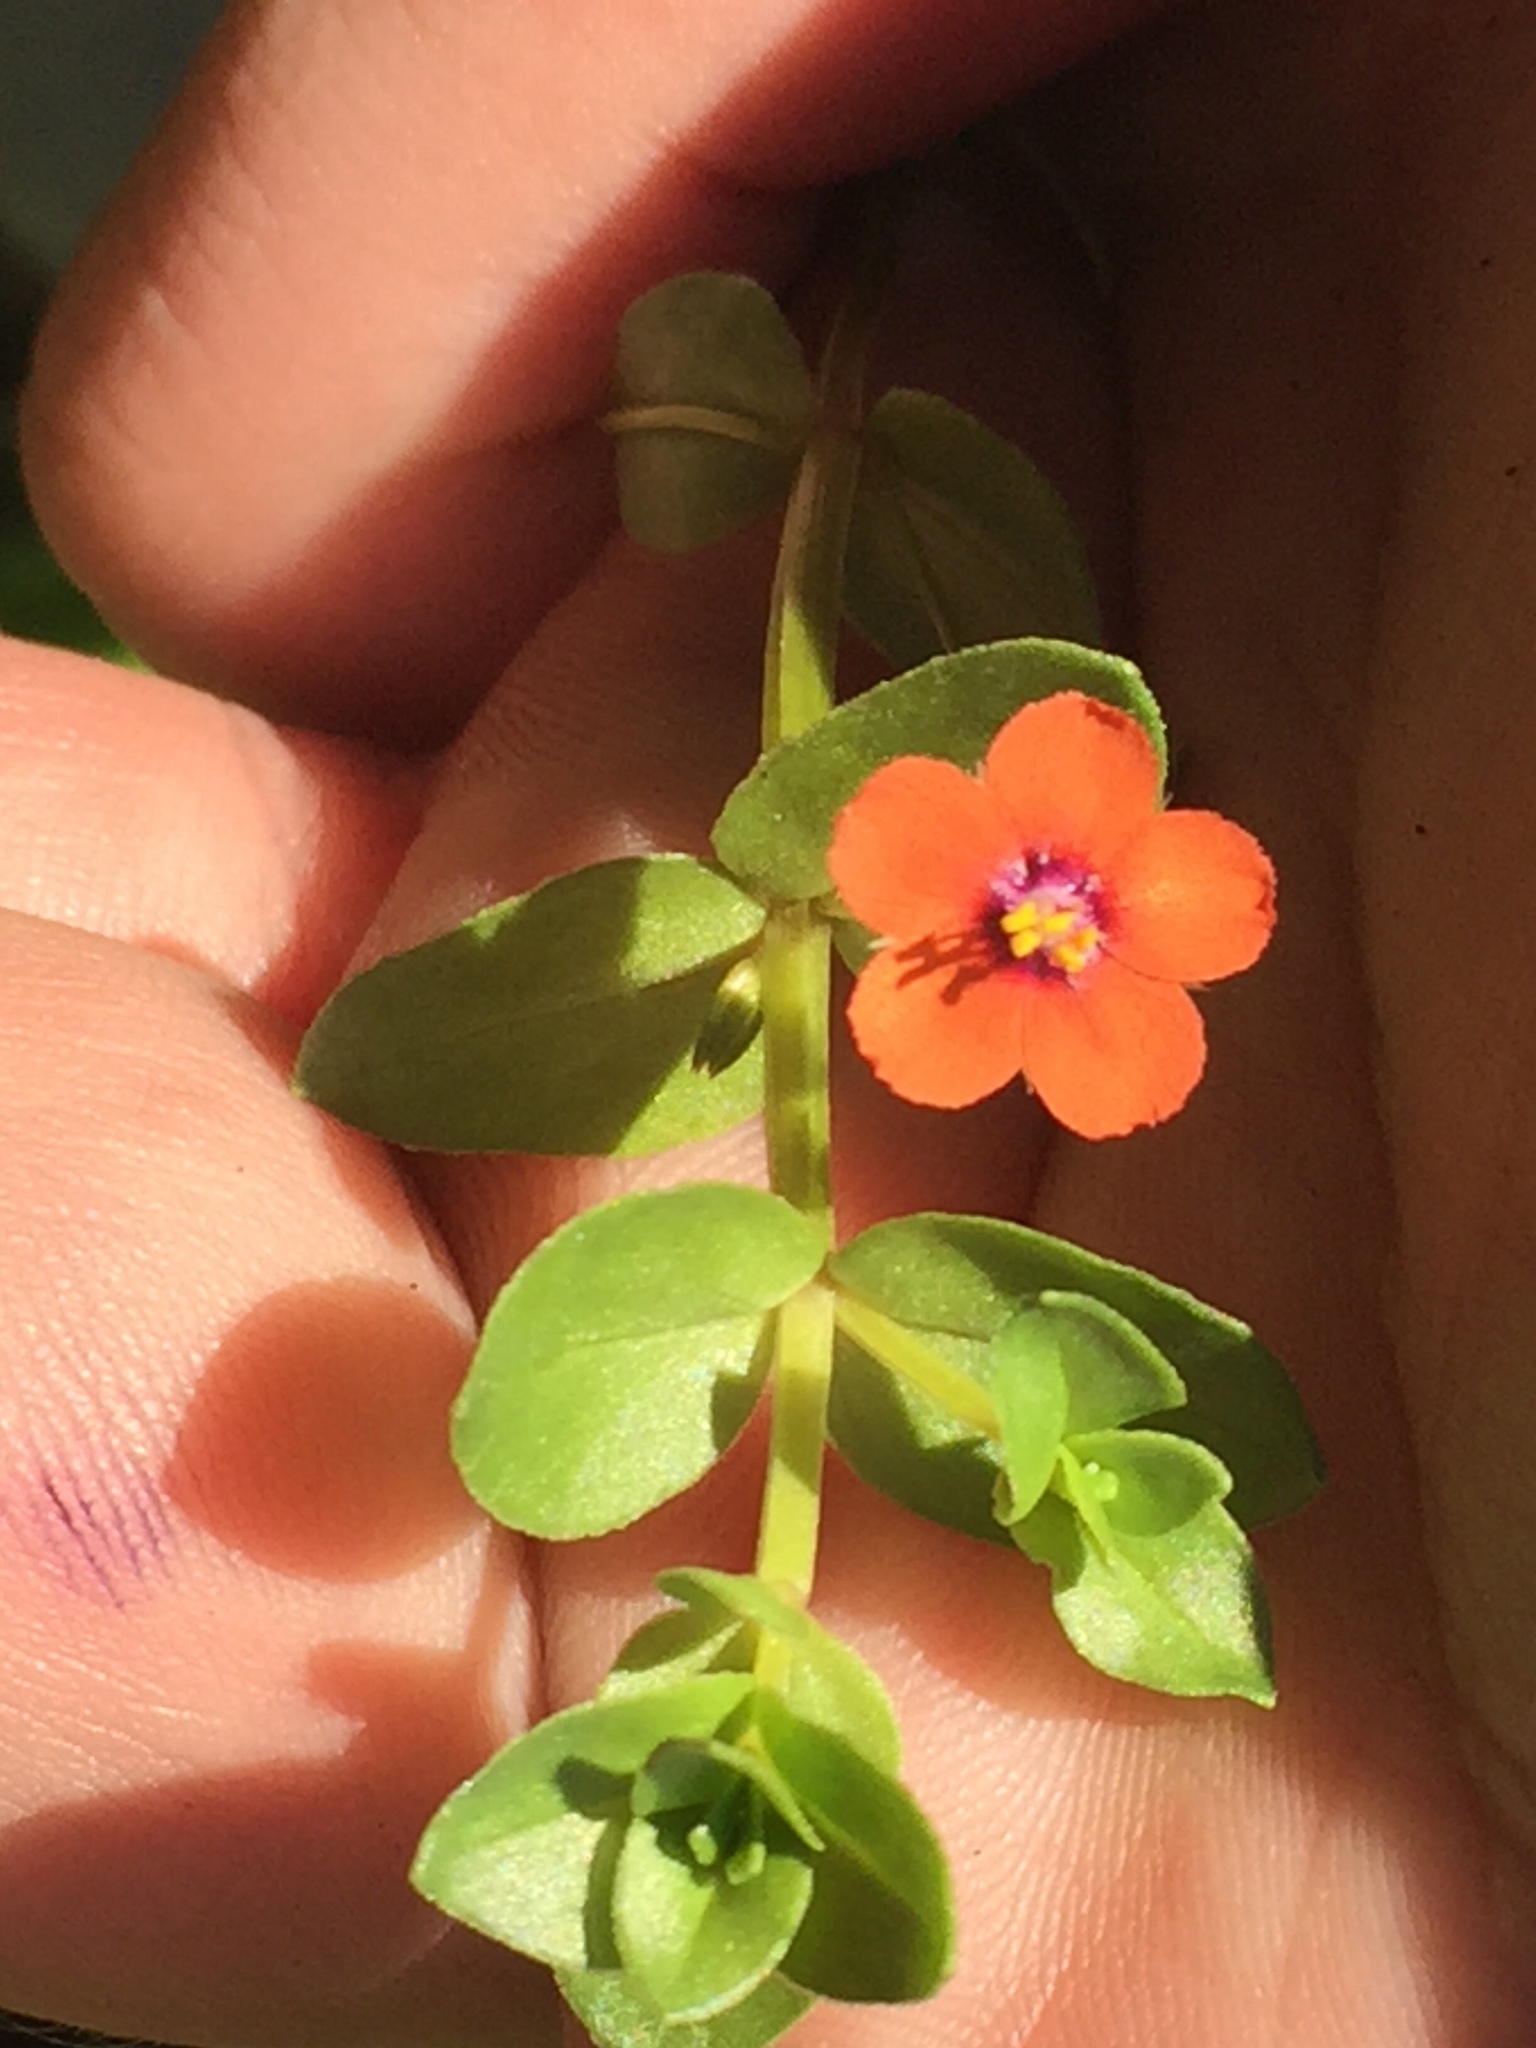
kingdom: Plantae
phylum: Tracheophyta
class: Magnoliopsida
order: Ericales
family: Primulaceae
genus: Lysimachia
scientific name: Lysimachia arvensis
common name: Scarlet pimpernel
